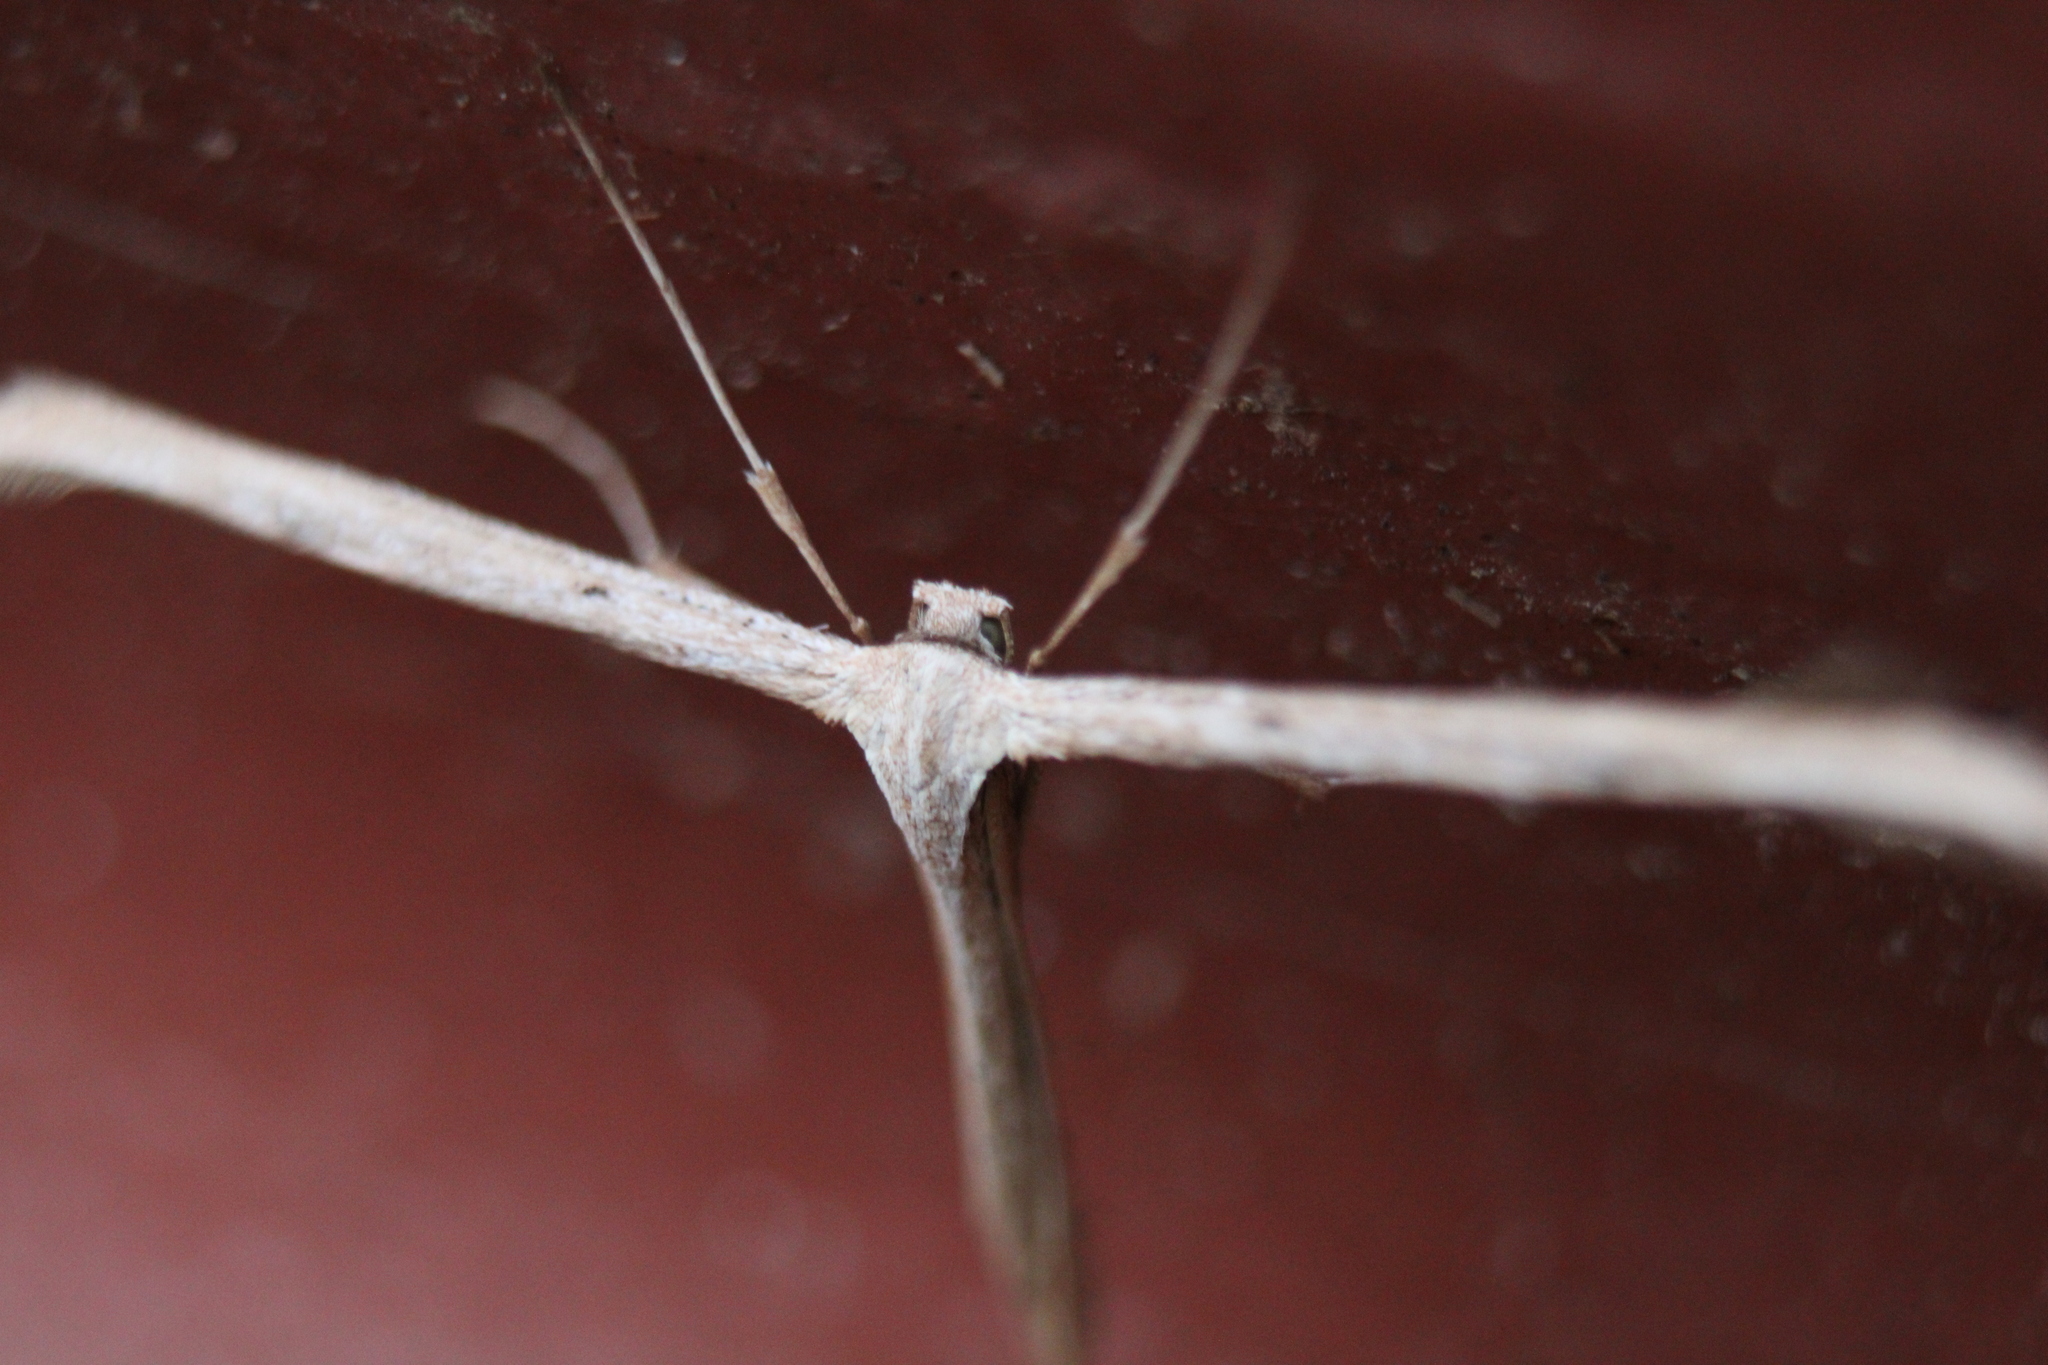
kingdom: Animalia
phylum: Arthropoda
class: Insecta
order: Lepidoptera
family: Pterophoridae
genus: Emmelina
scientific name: Emmelina monodactyla
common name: Common plume
